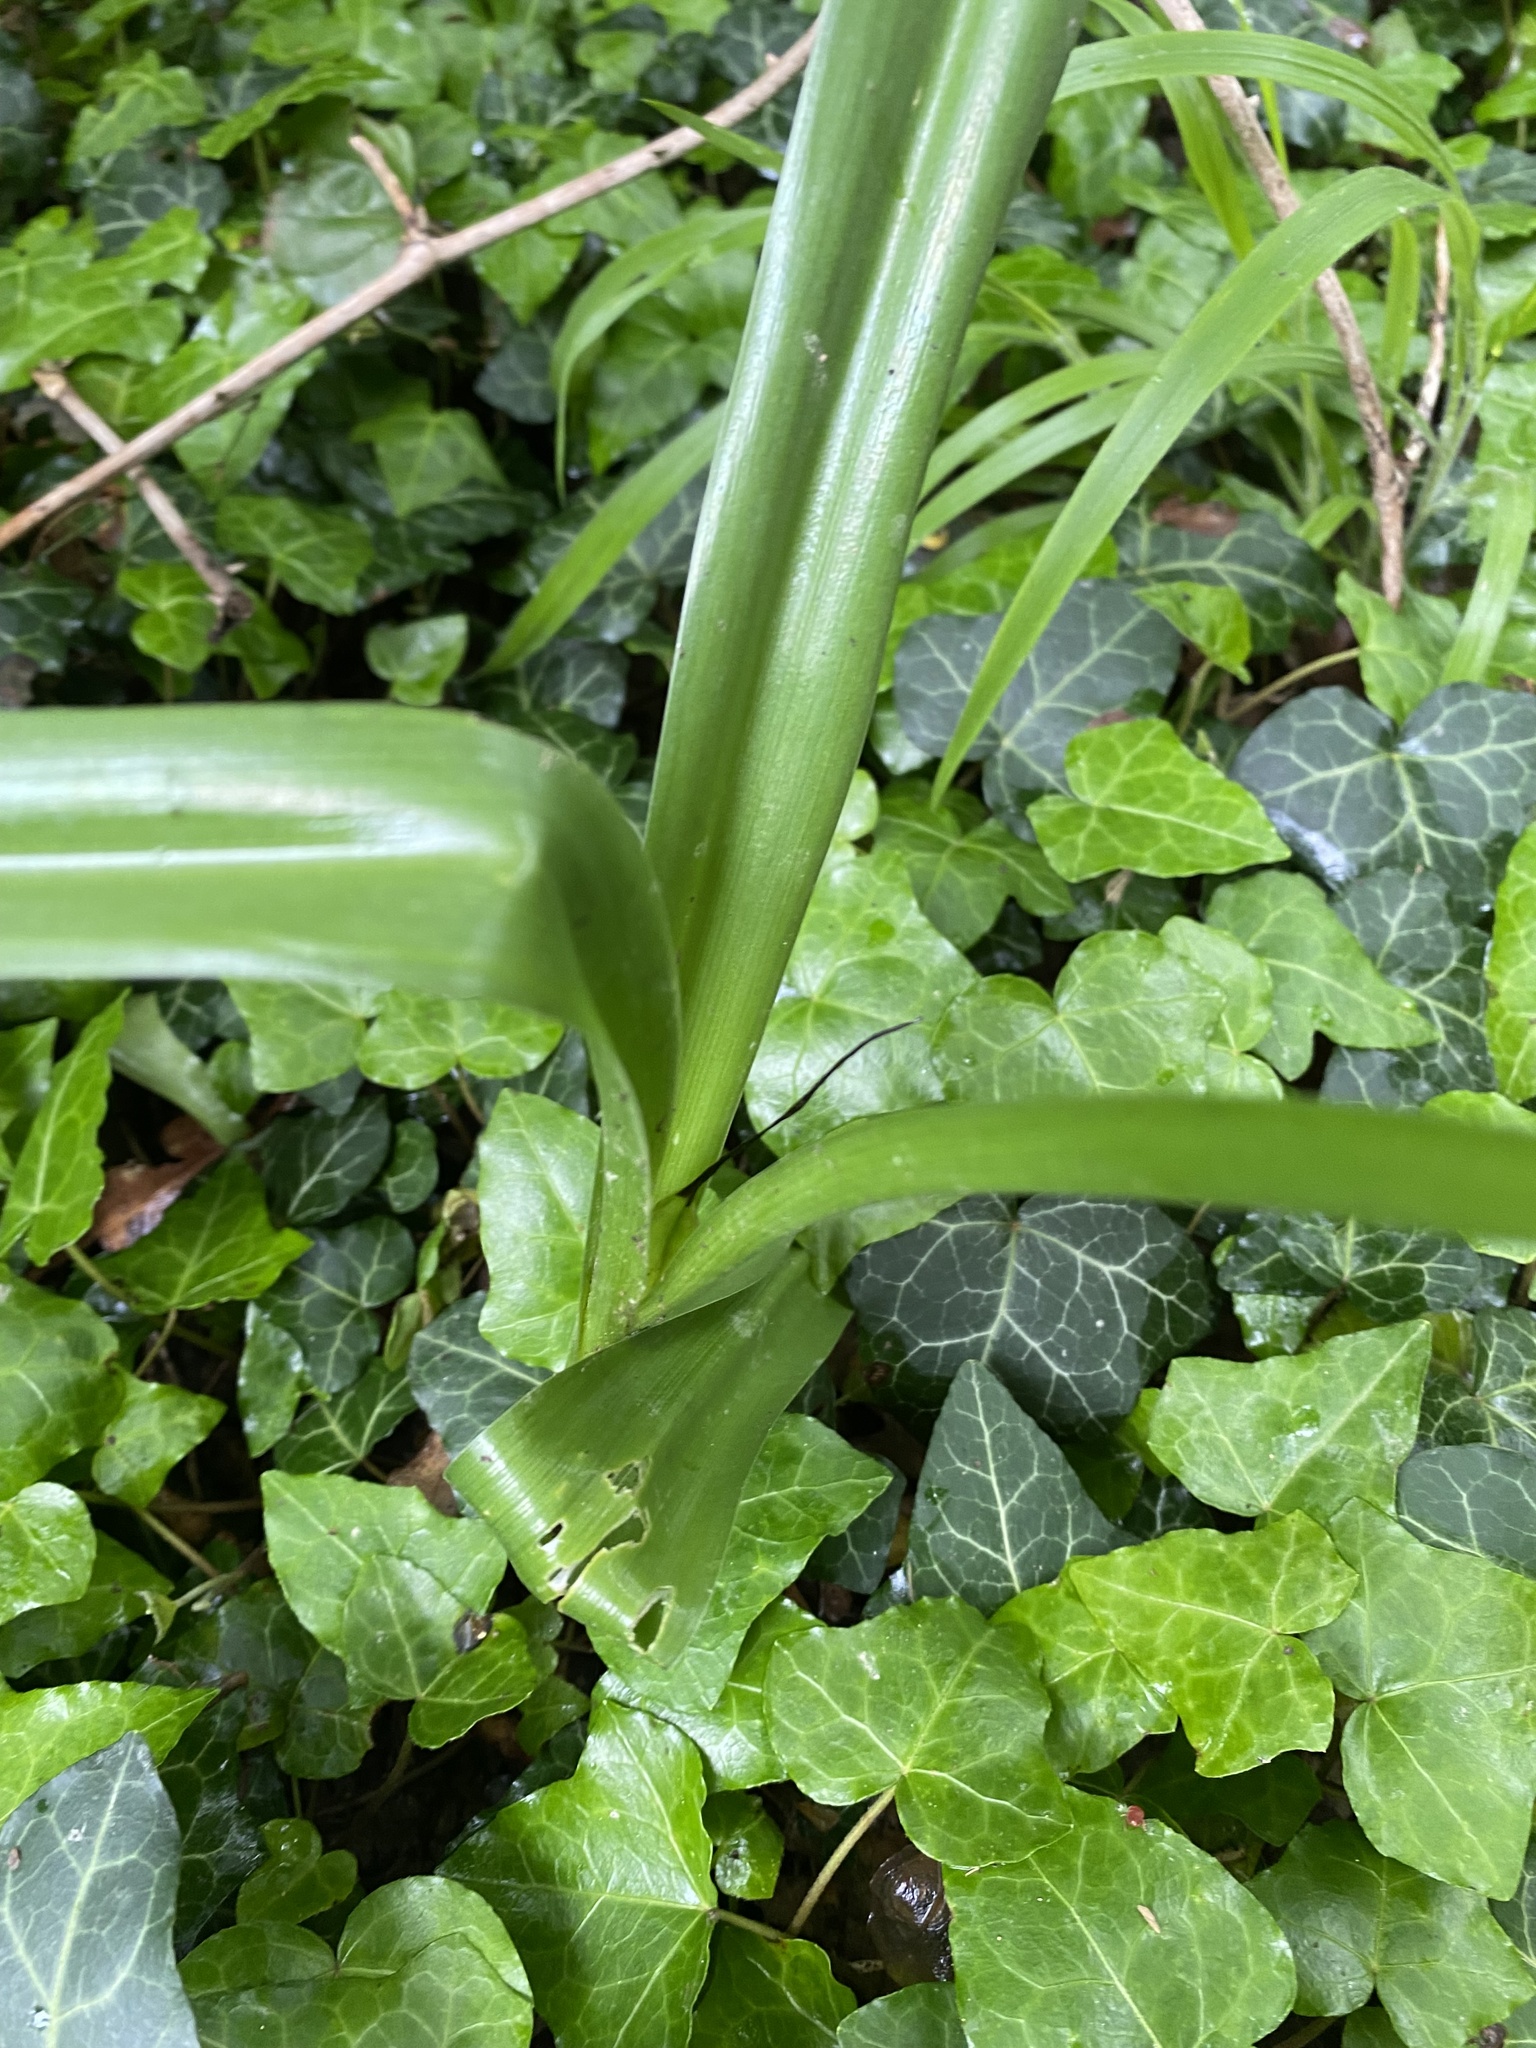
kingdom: Plantae
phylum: Tracheophyta
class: Liliopsida
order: Liliales
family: Colchicaceae
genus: Colchicum
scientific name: Colchicum umbrosum
